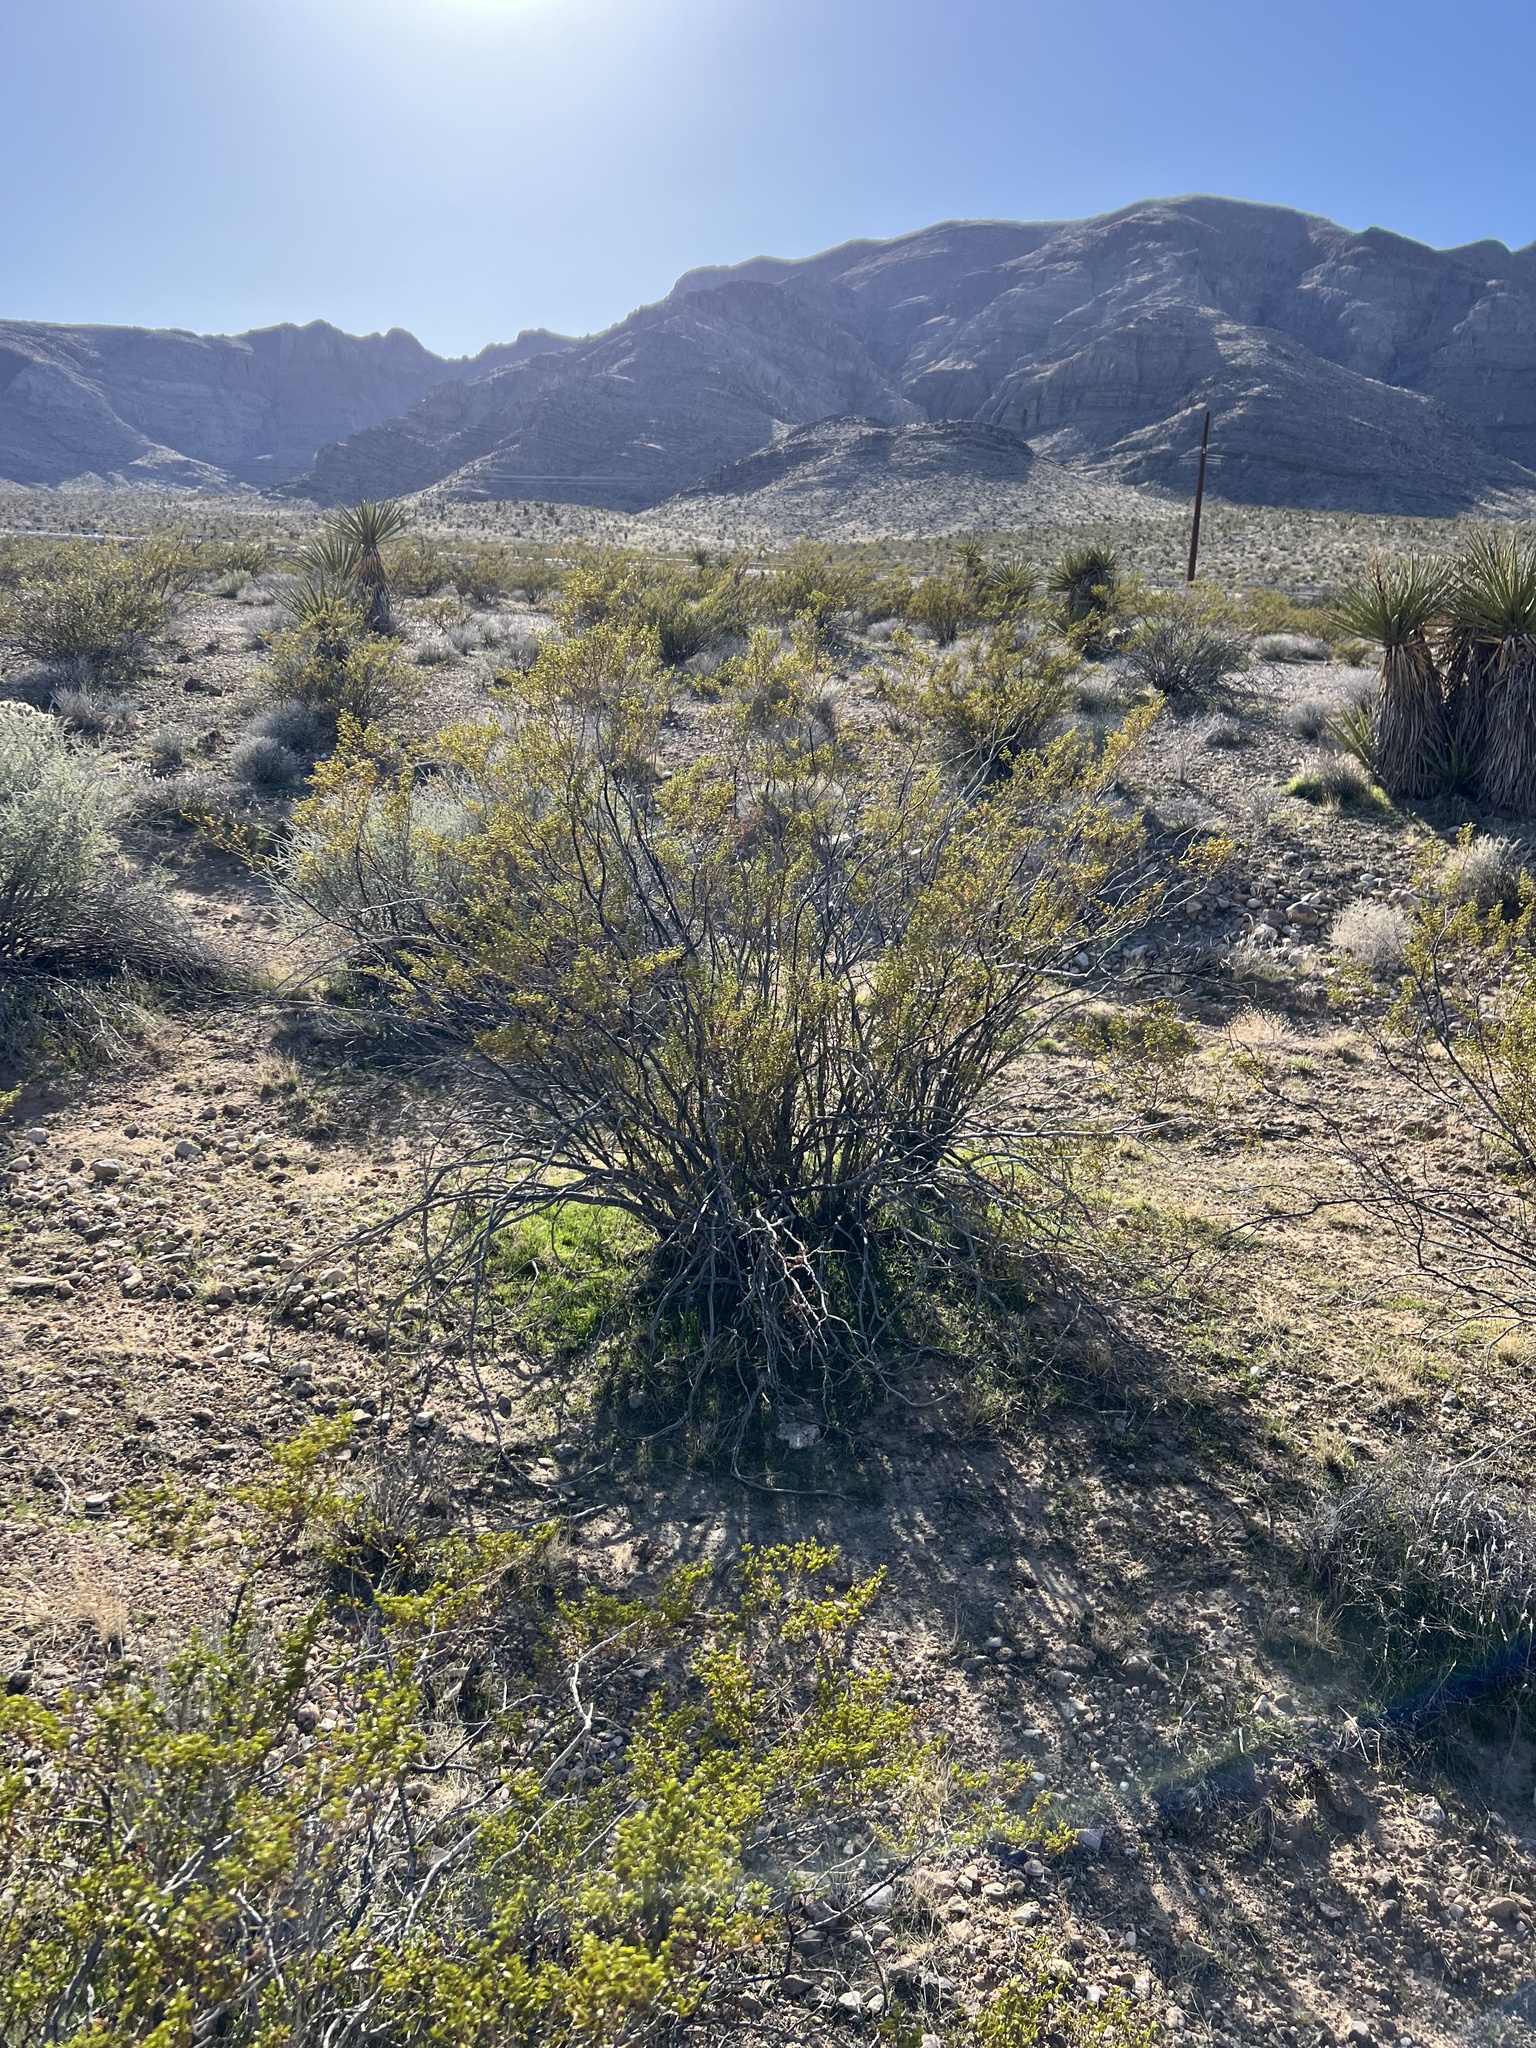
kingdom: Plantae
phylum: Tracheophyta
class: Magnoliopsida
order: Zygophyllales
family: Zygophyllaceae
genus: Larrea
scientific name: Larrea tridentata
